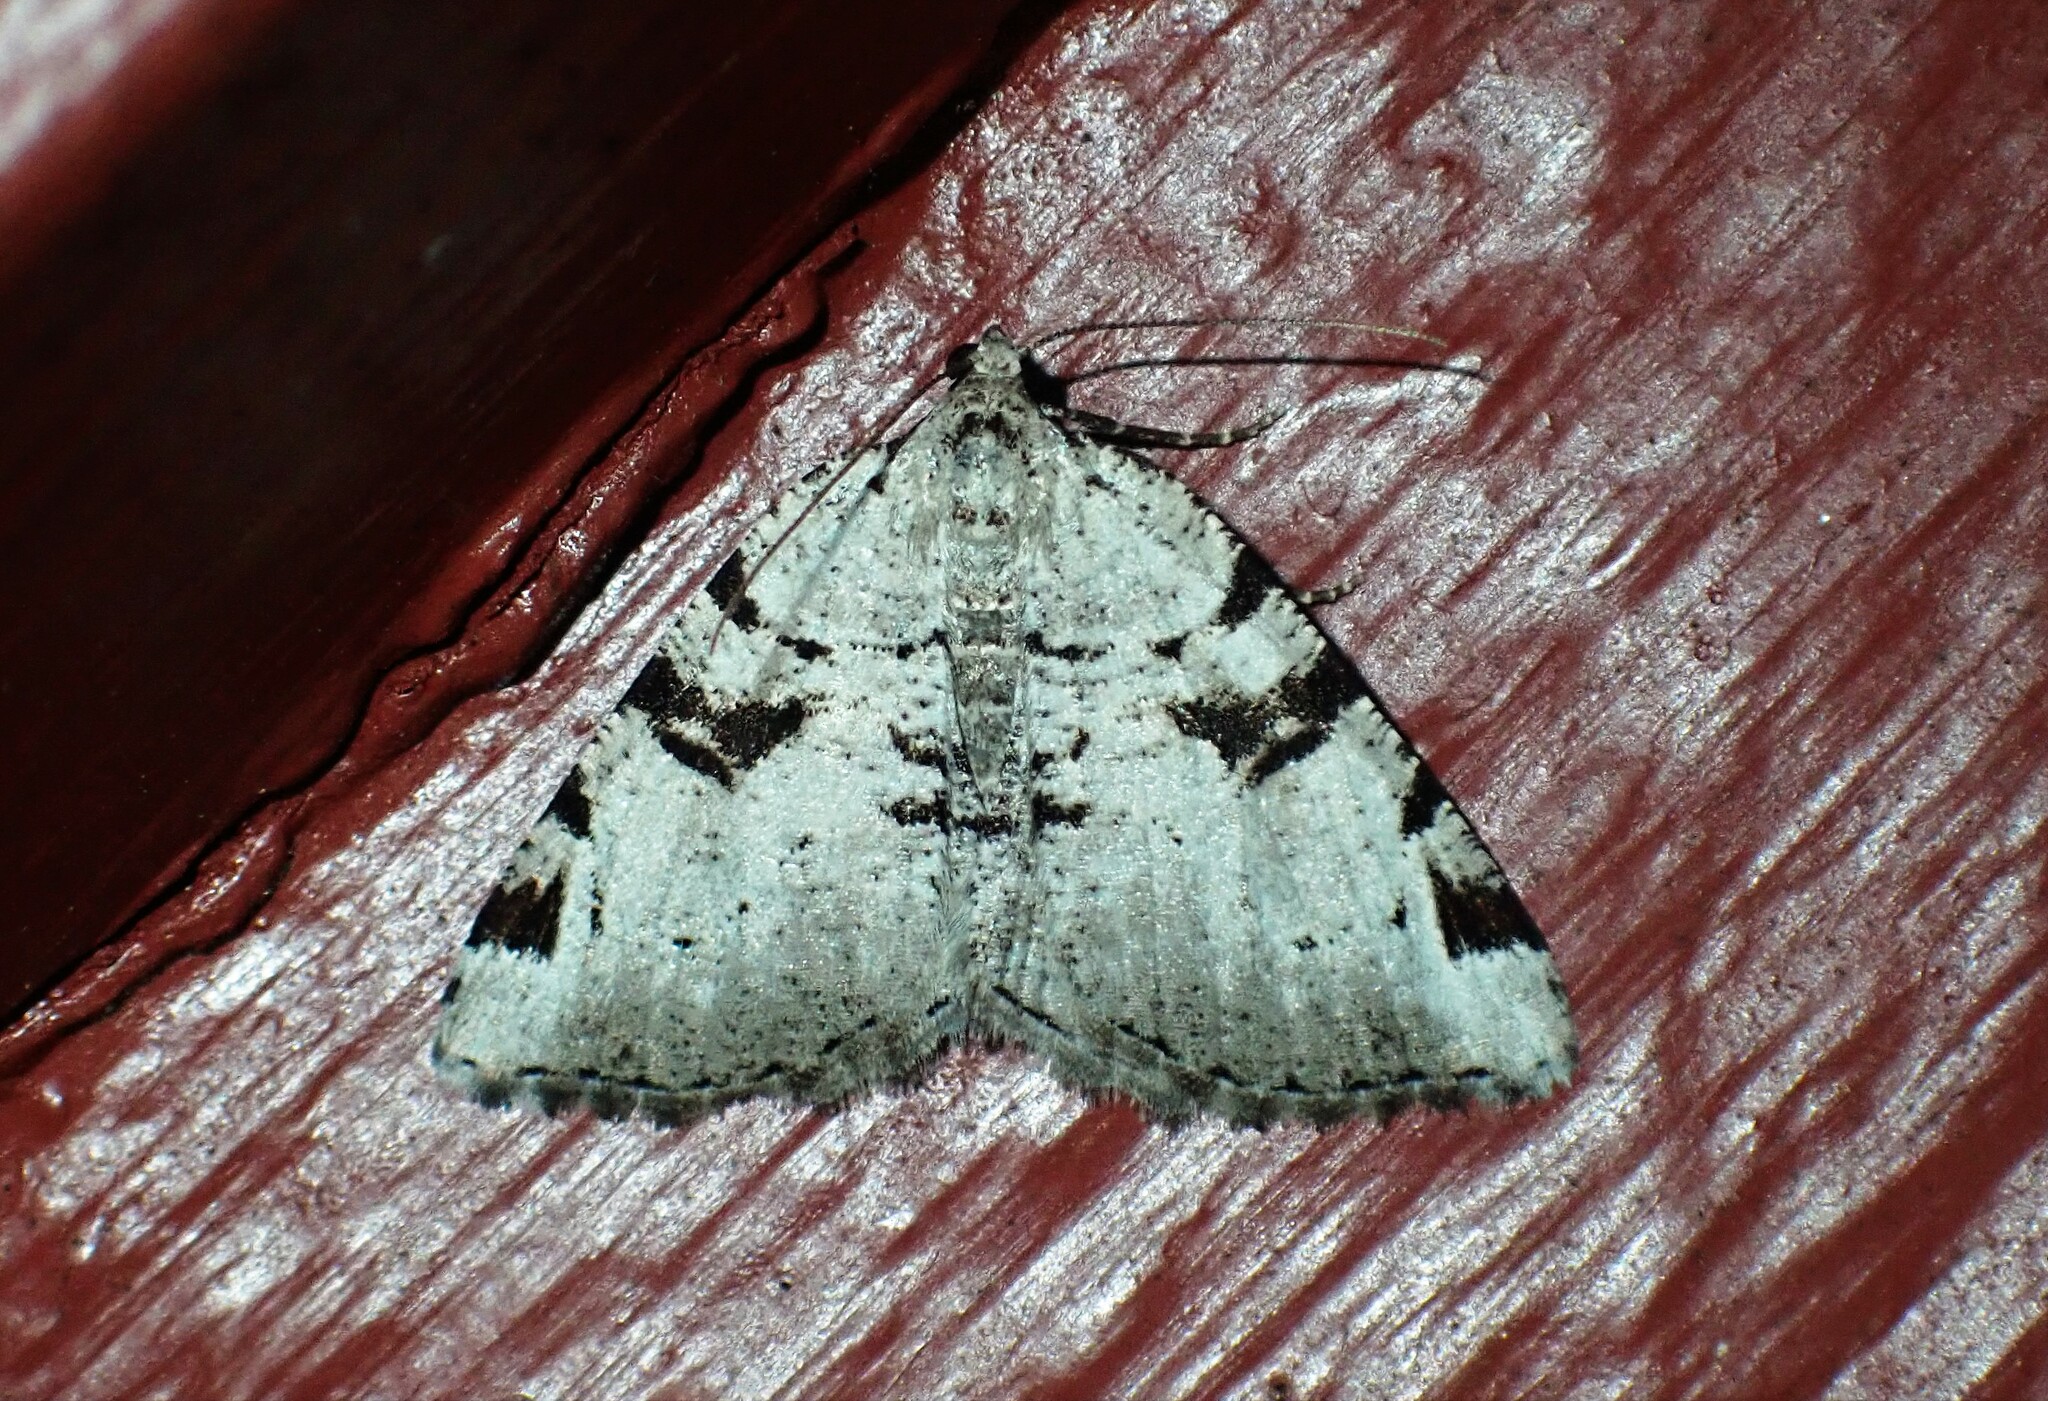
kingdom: Animalia
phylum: Arthropoda
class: Insecta
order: Lepidoptera
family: Geometridae
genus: Macaria
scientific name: Macaria bitactata
